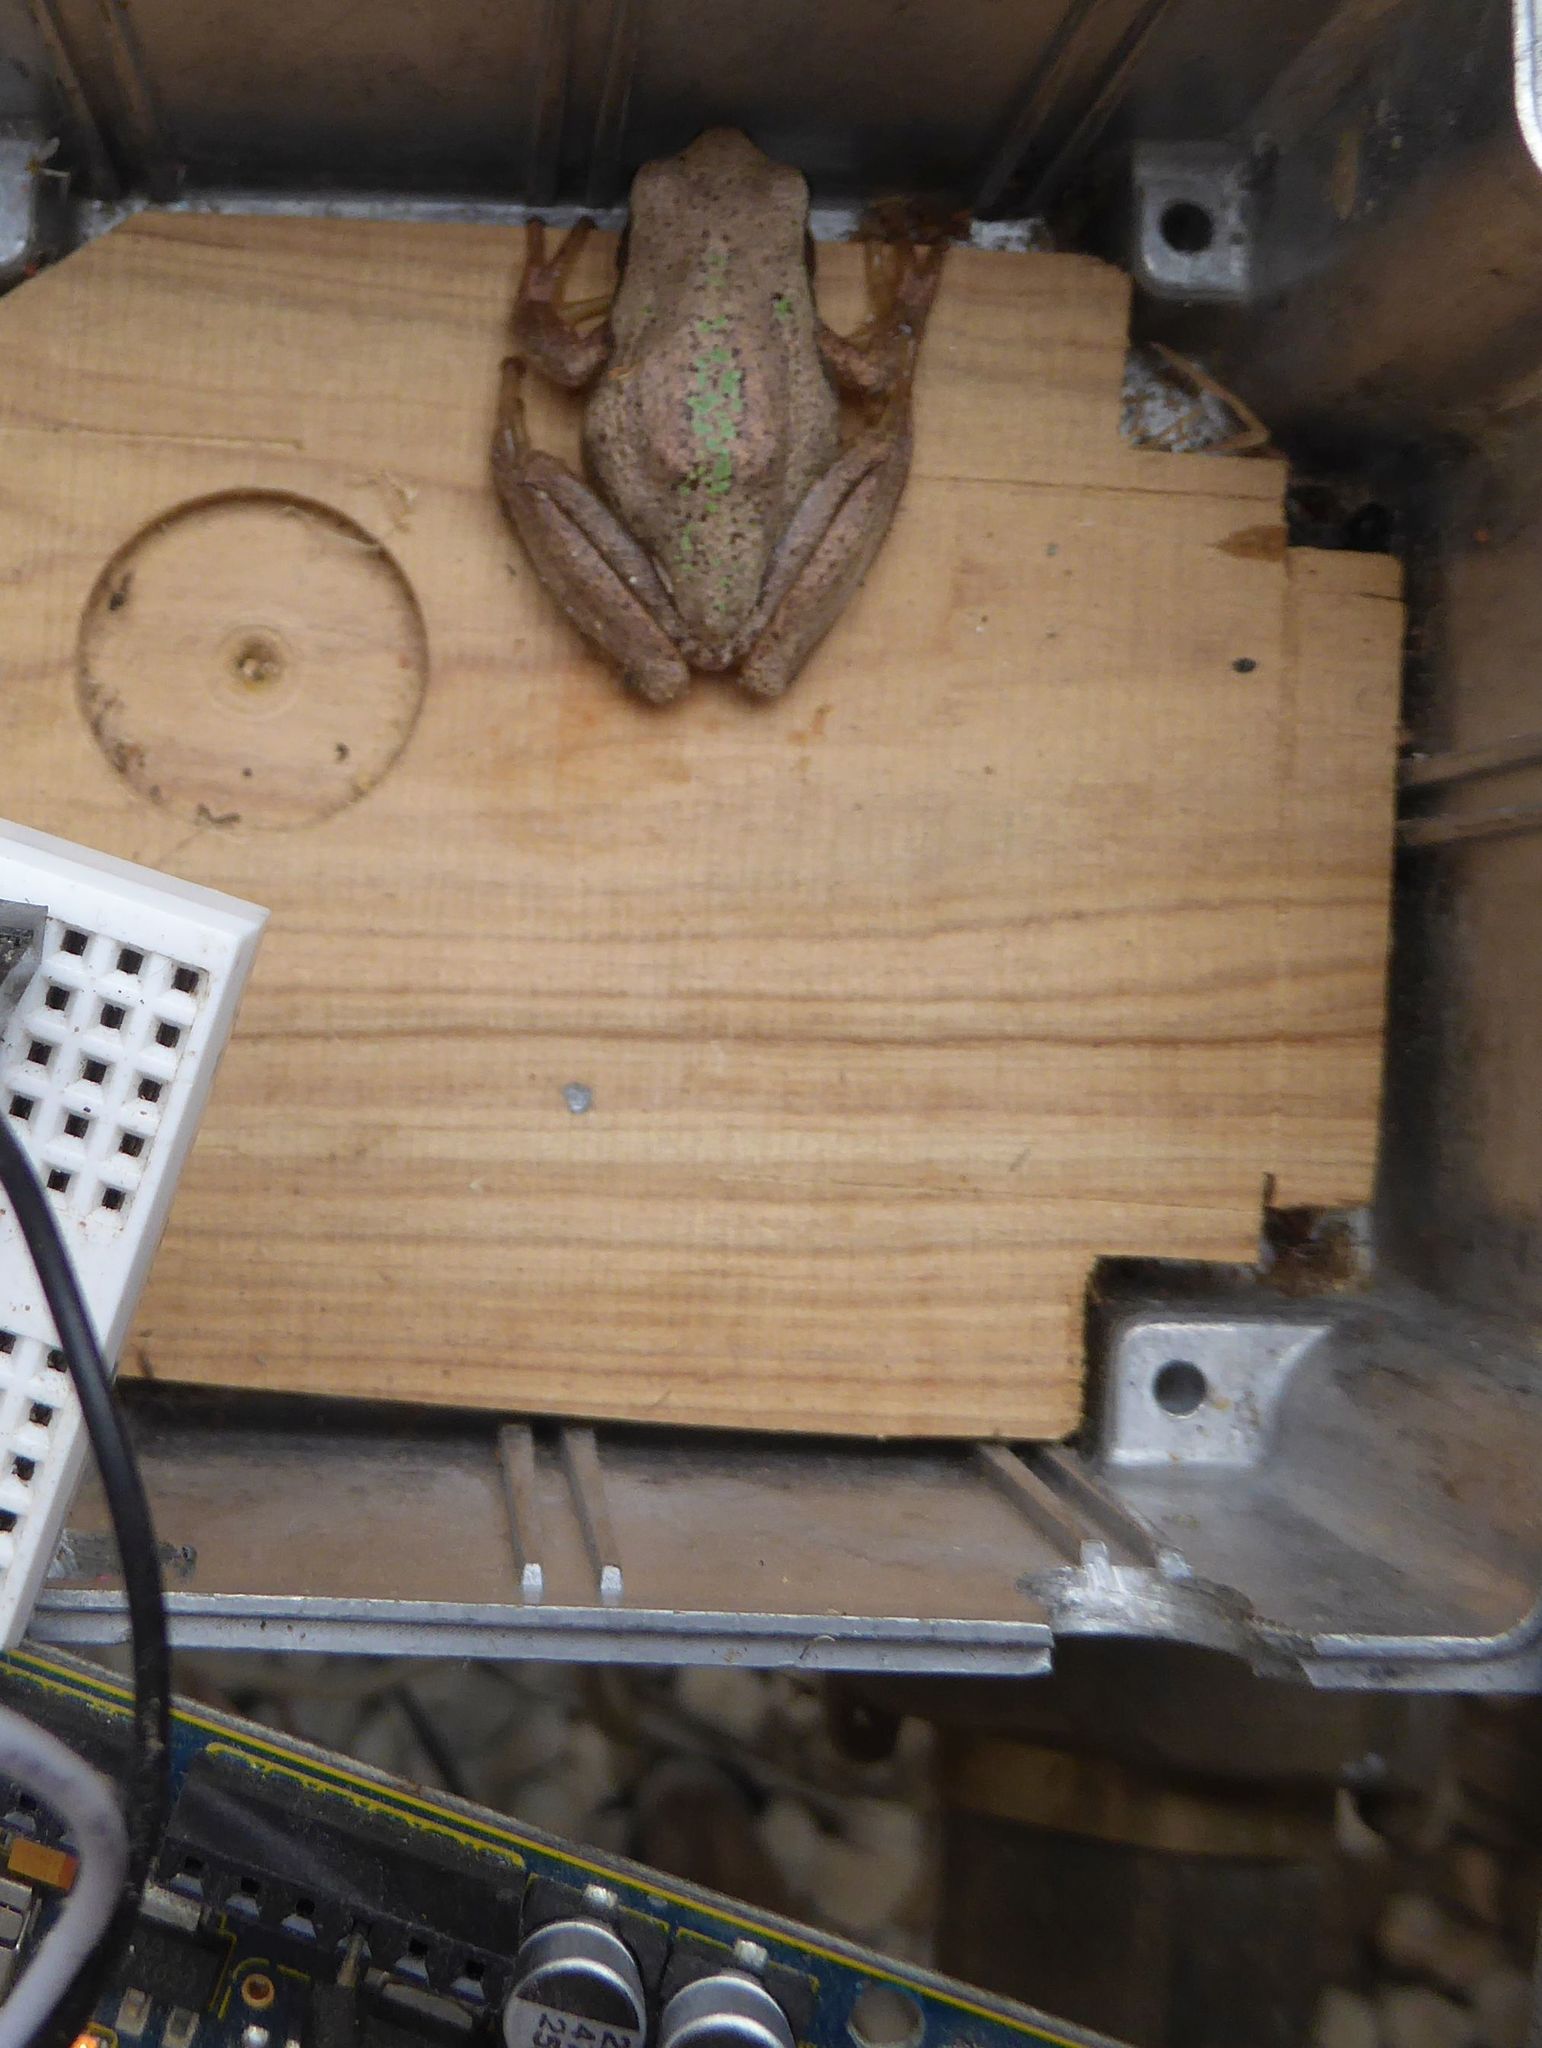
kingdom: Animalia
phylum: Chordata
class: Amphibia
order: Anura
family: Pelodryadidae
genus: Litoria
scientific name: Litoria ewingii
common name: Southern brown tree frog
